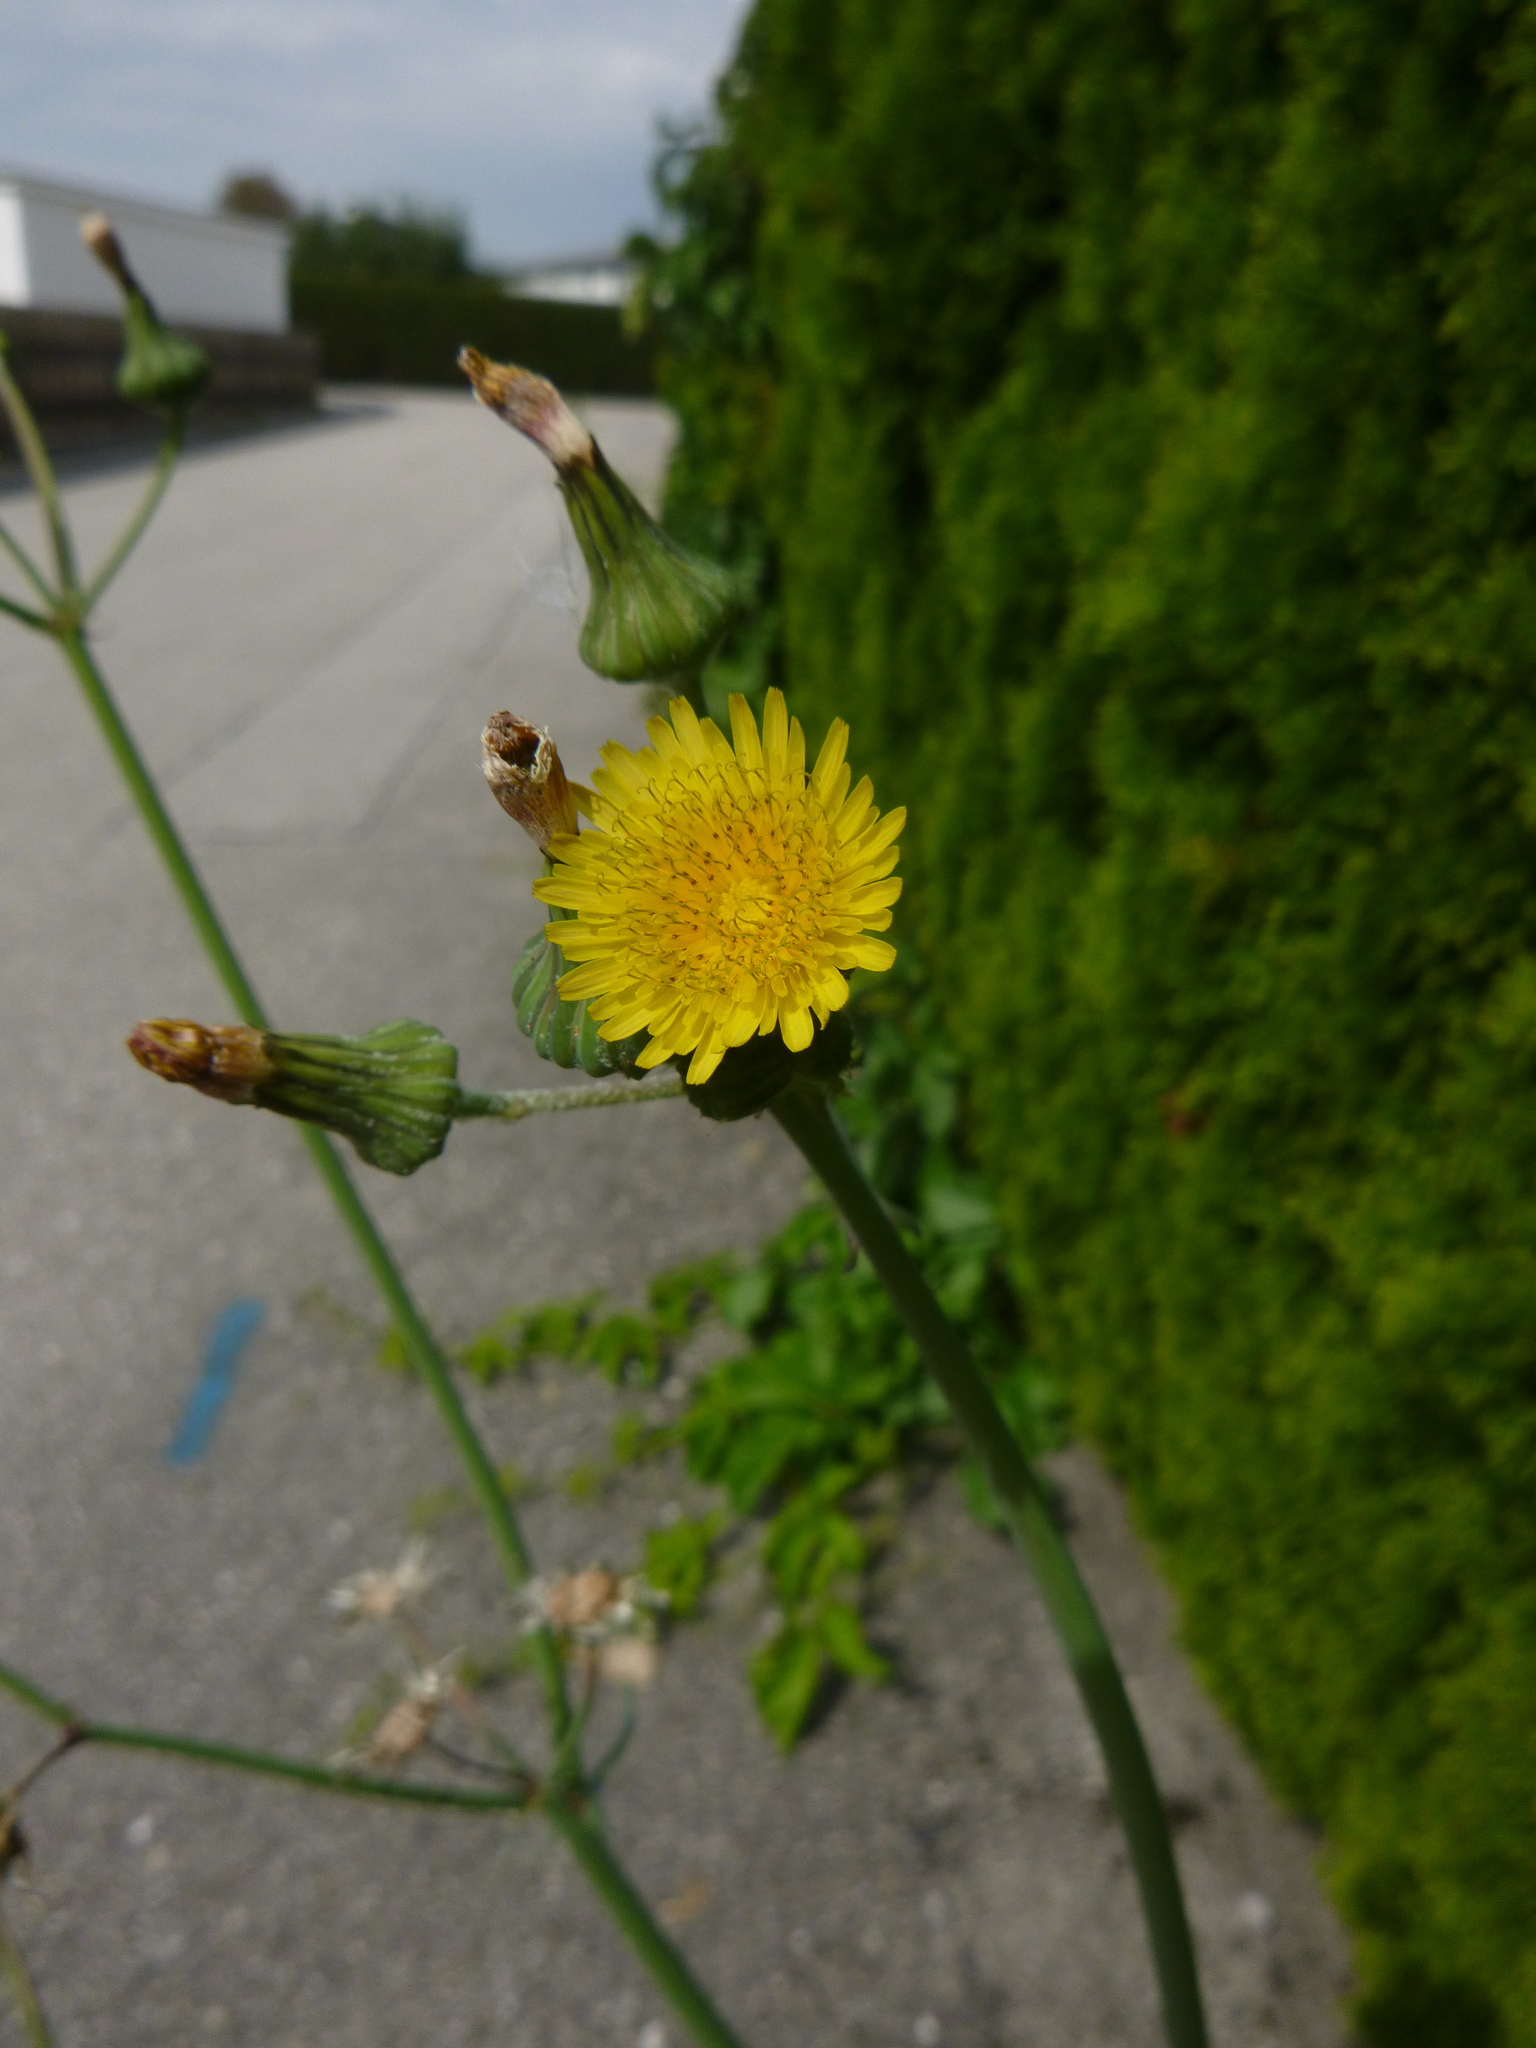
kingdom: Plantae
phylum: Tracheophyta
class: Magnoliopsida
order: Asterales
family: Asteraceae
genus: Sonchus
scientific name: Sonchus oleraceus
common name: Common sowthistle
